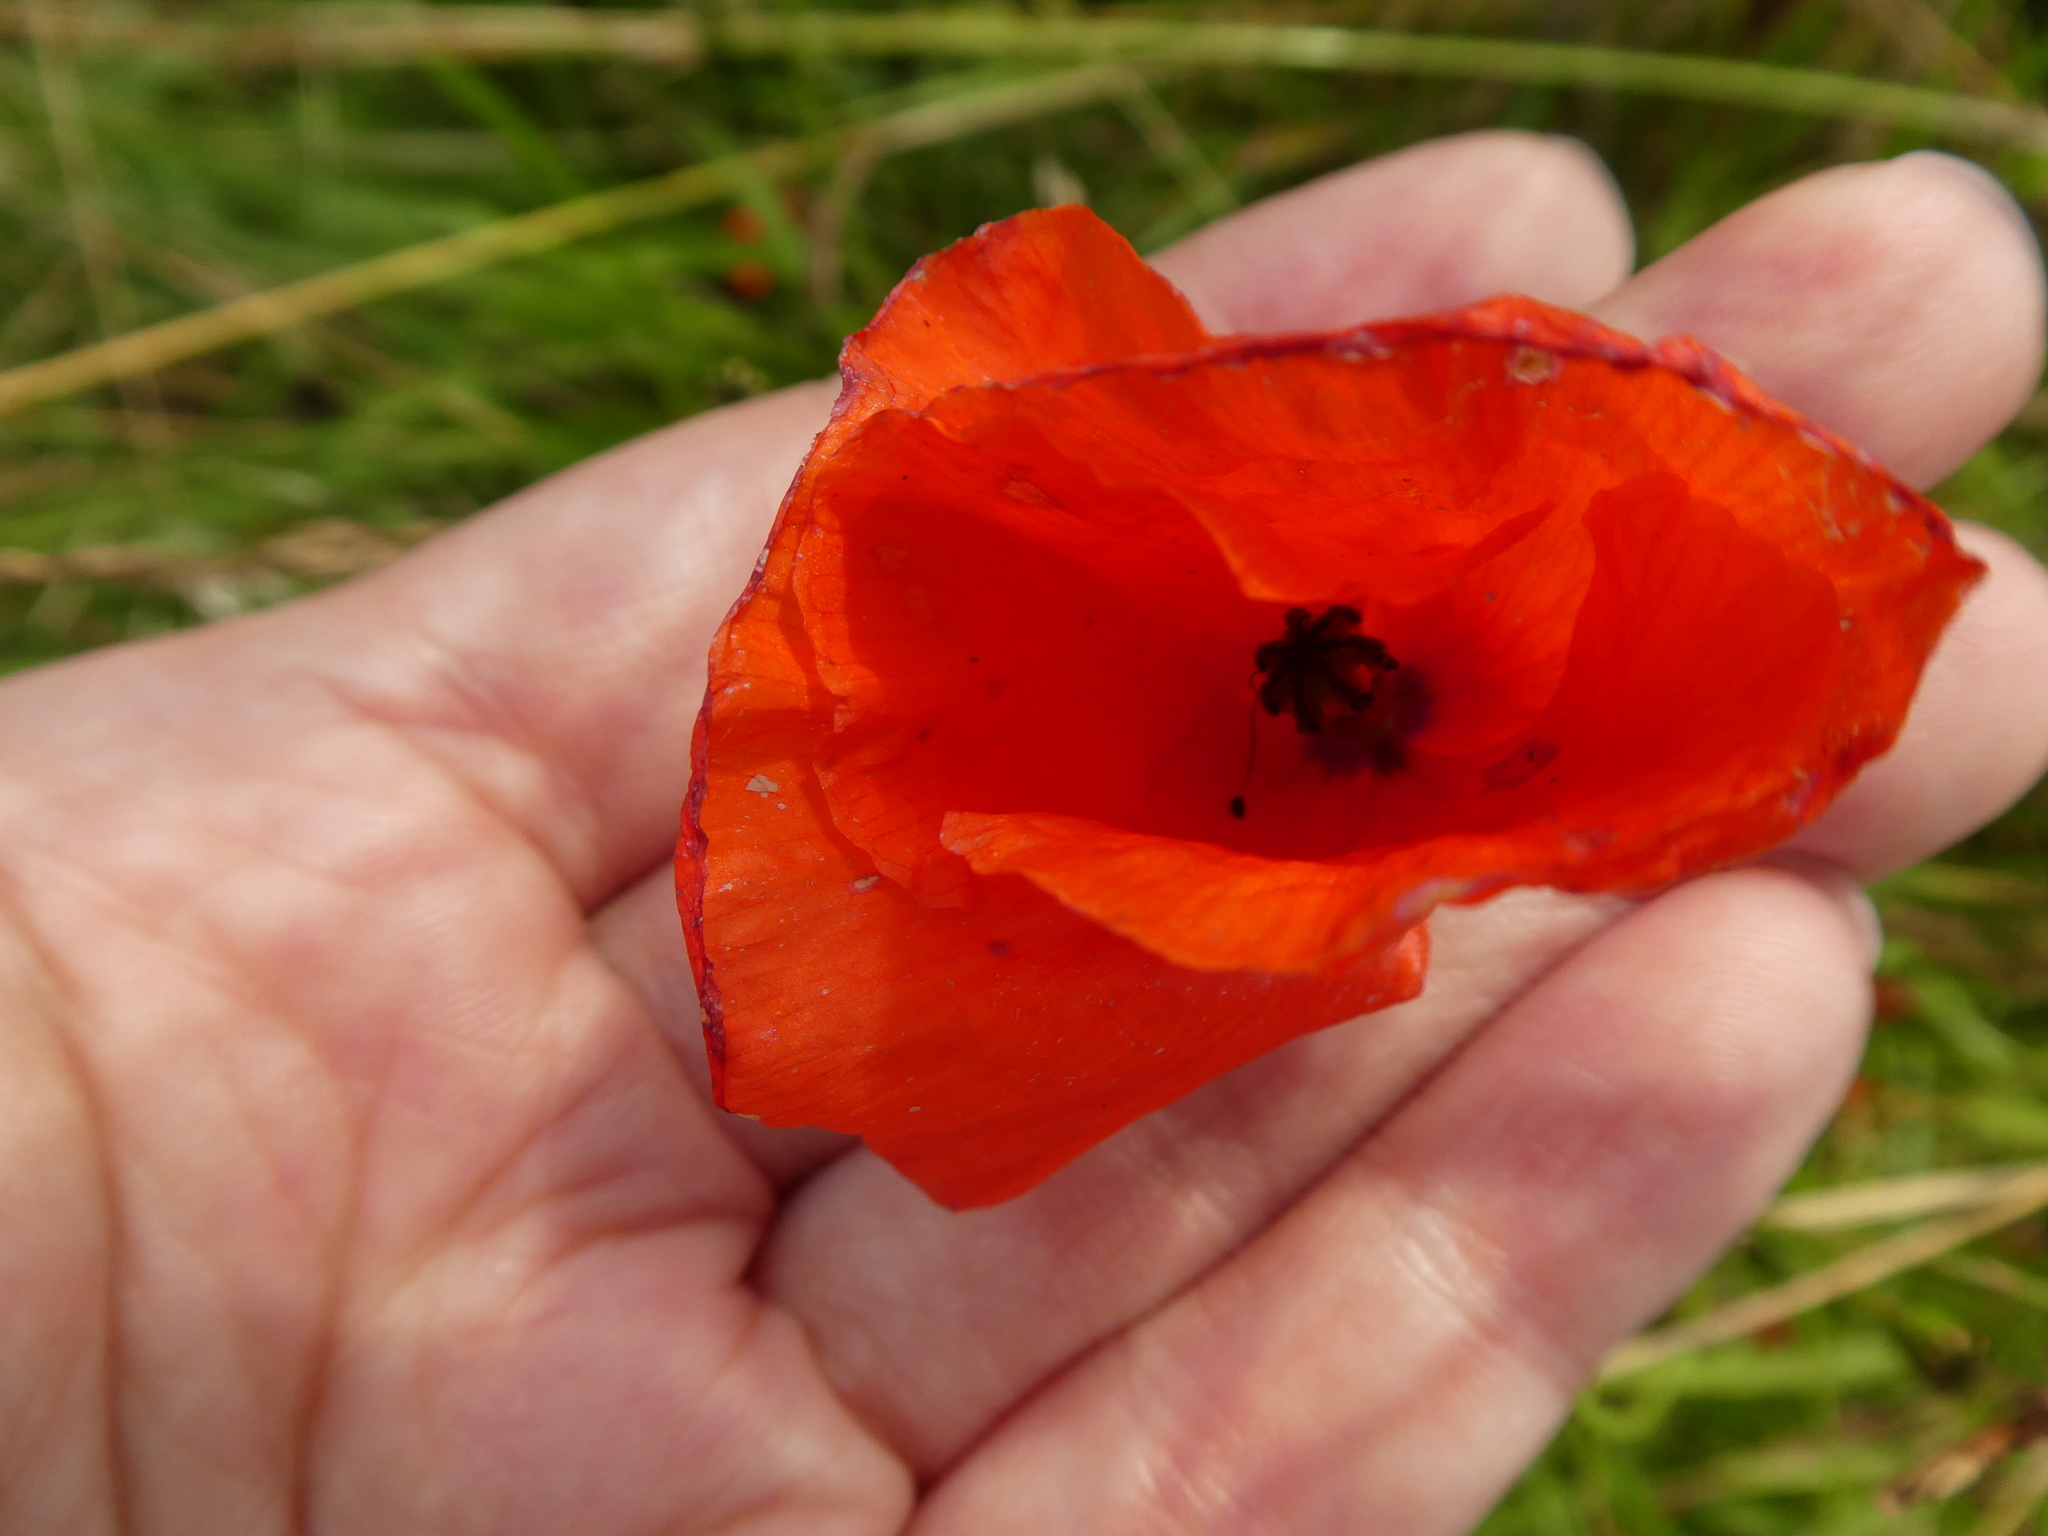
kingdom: Plantae
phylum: Tracheophyta
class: Magnoliopsida
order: Ranunculales
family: Papaveraceae
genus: Papaver
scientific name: Papaver rhoeas
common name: Corn poppy
